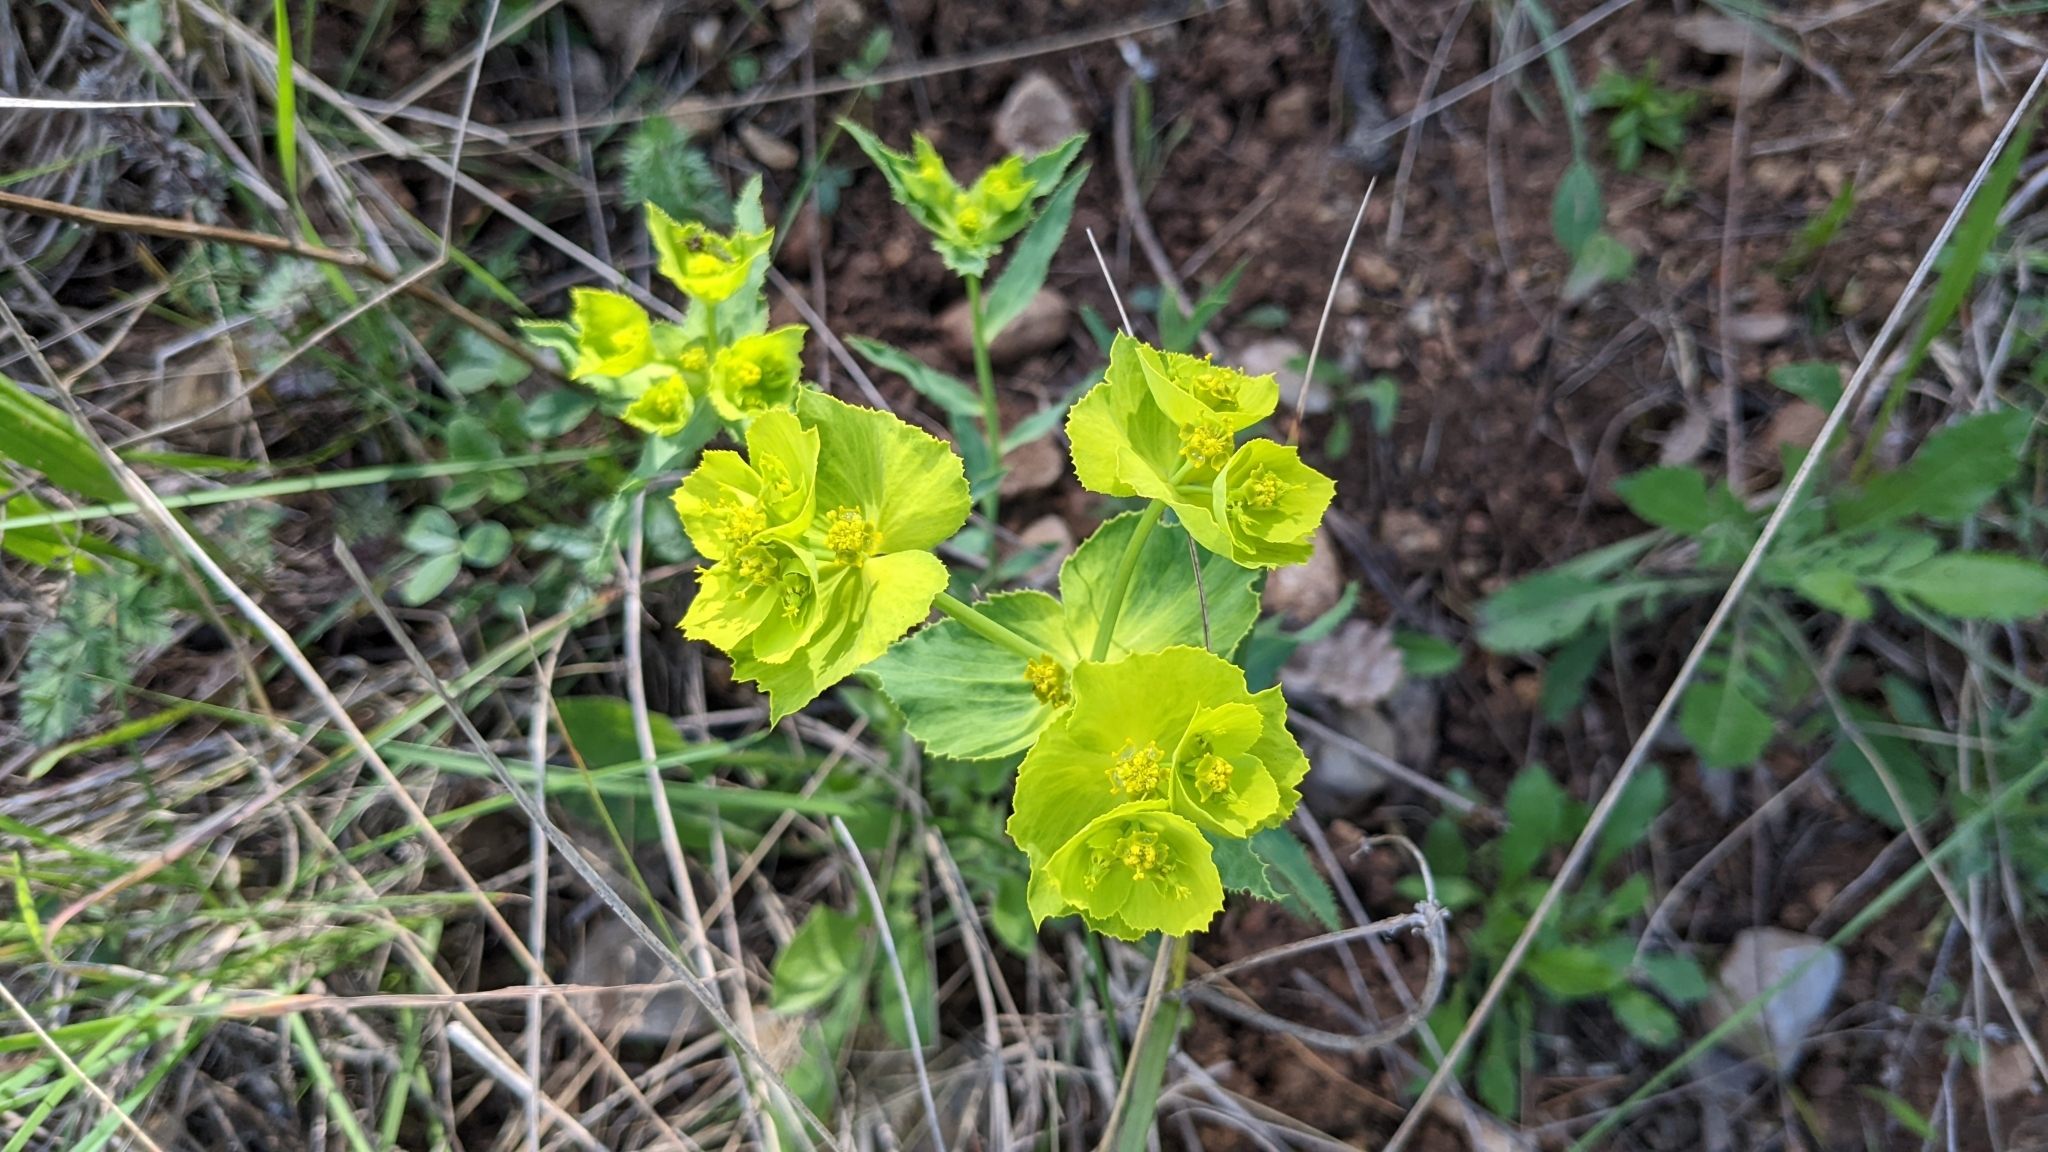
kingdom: Plantae
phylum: Tracheophyta
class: Magnoliopsida
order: Malpighiales
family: Euphorbiaceae
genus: Euphorbia
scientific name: Euphorbia serrata
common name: Serrate spurge
